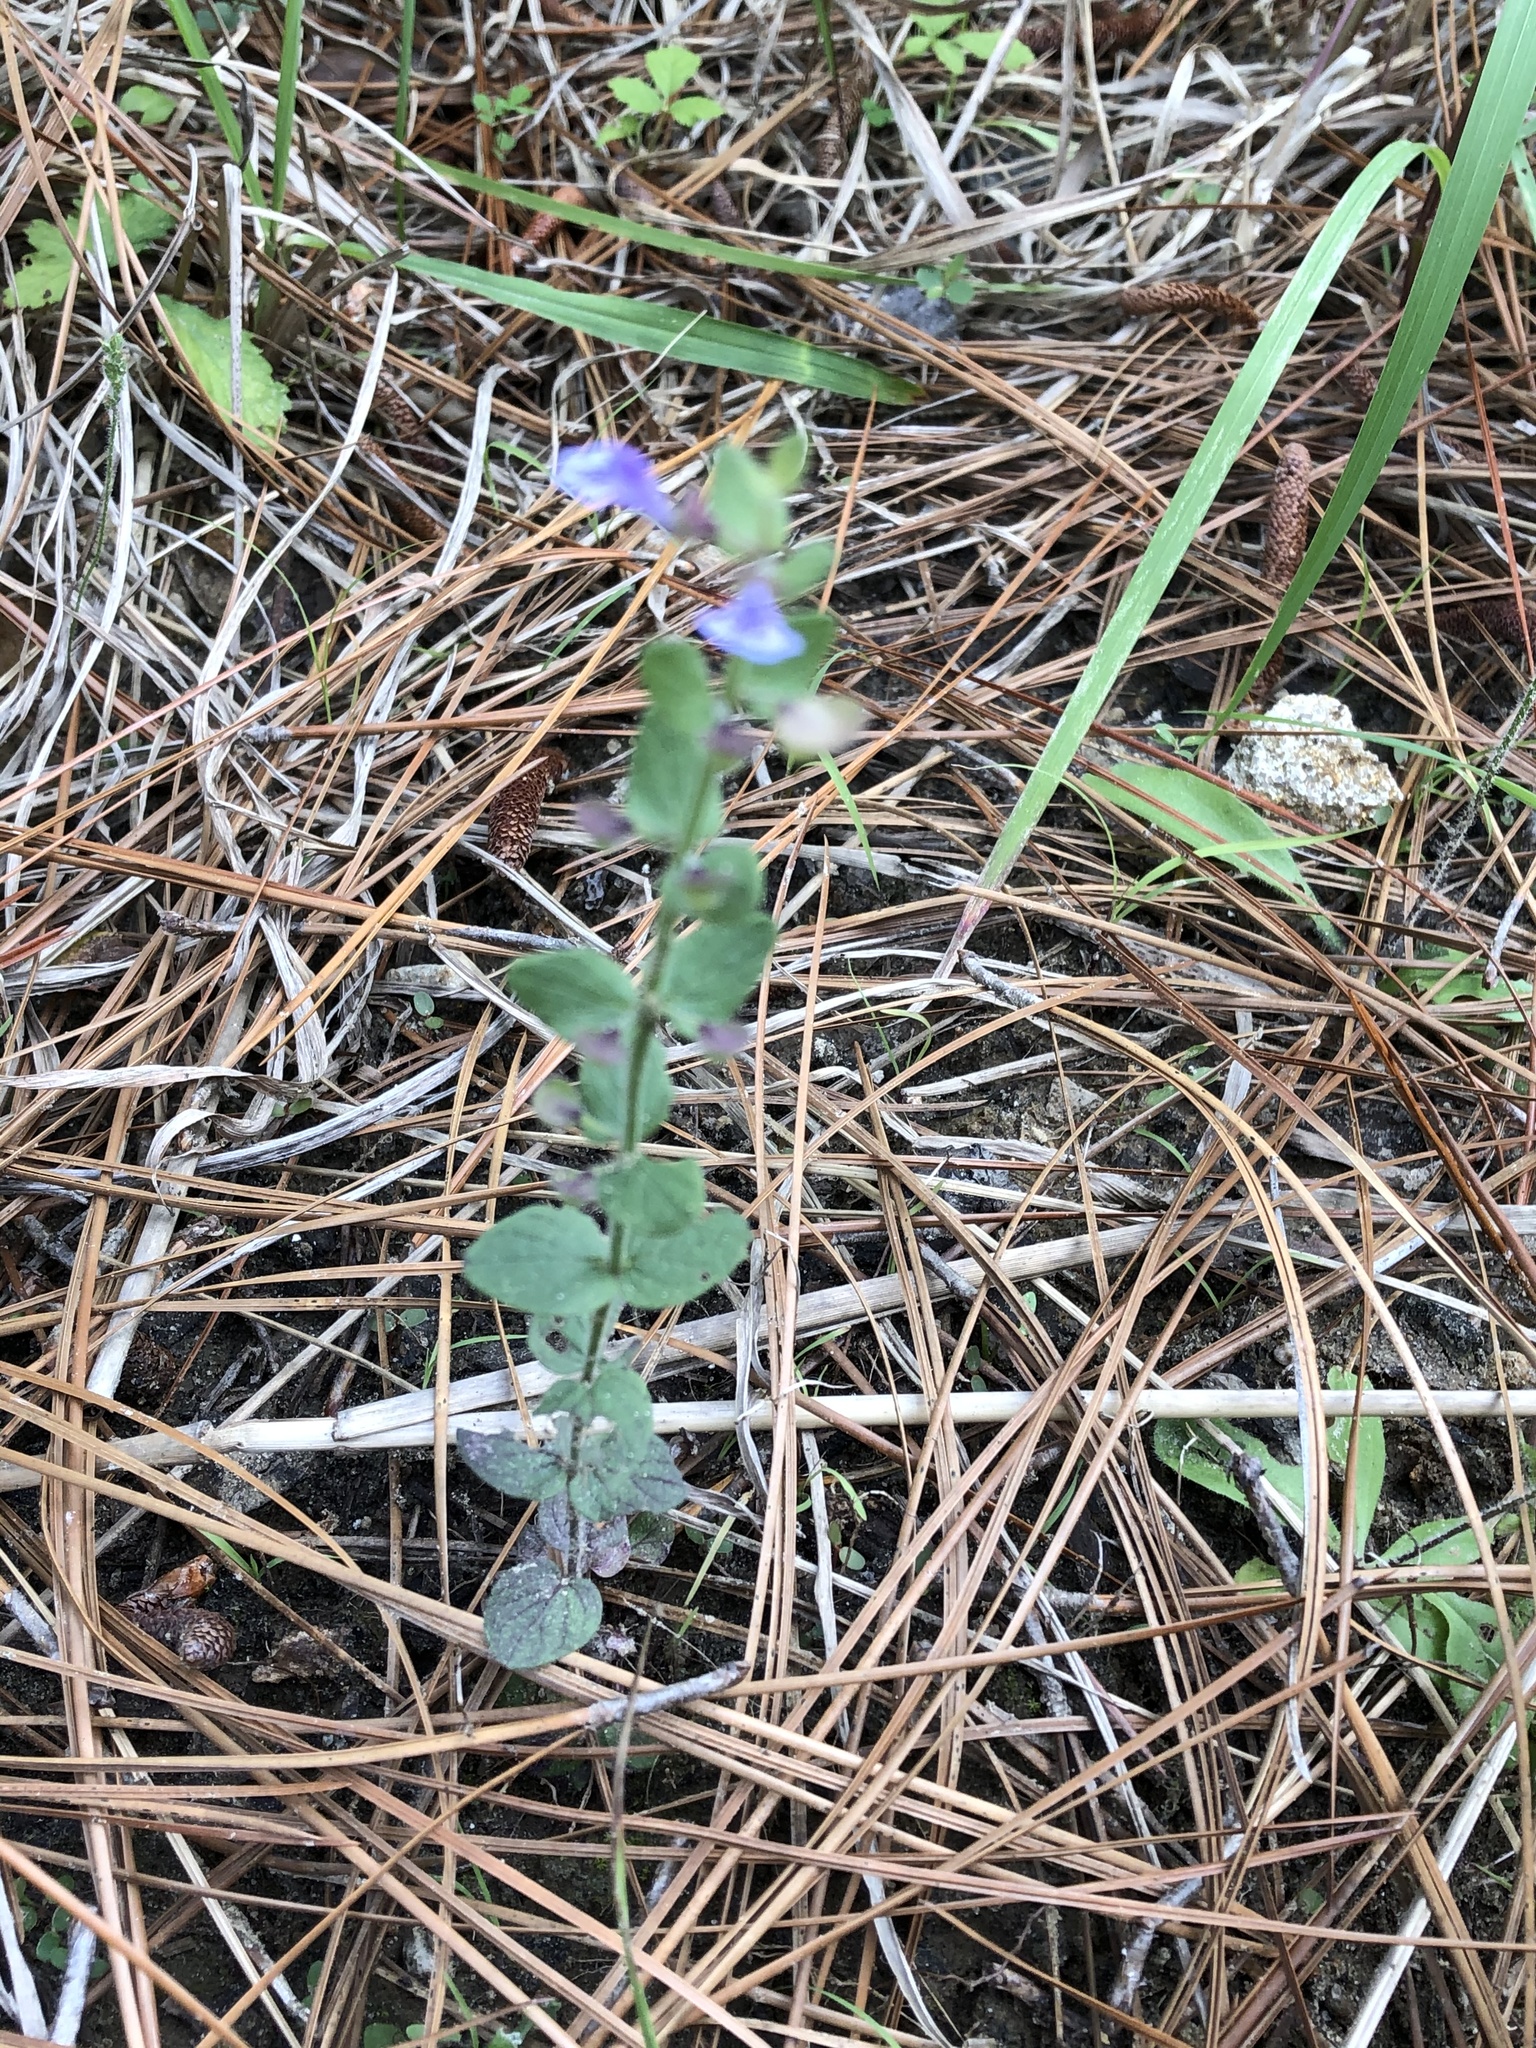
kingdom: Plantae
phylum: Tracheophyta
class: Magnoliopsida
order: Lamiales
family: Lamiaceae
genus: Scutellaria
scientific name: Scutellaria parvula
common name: Little scullcap
